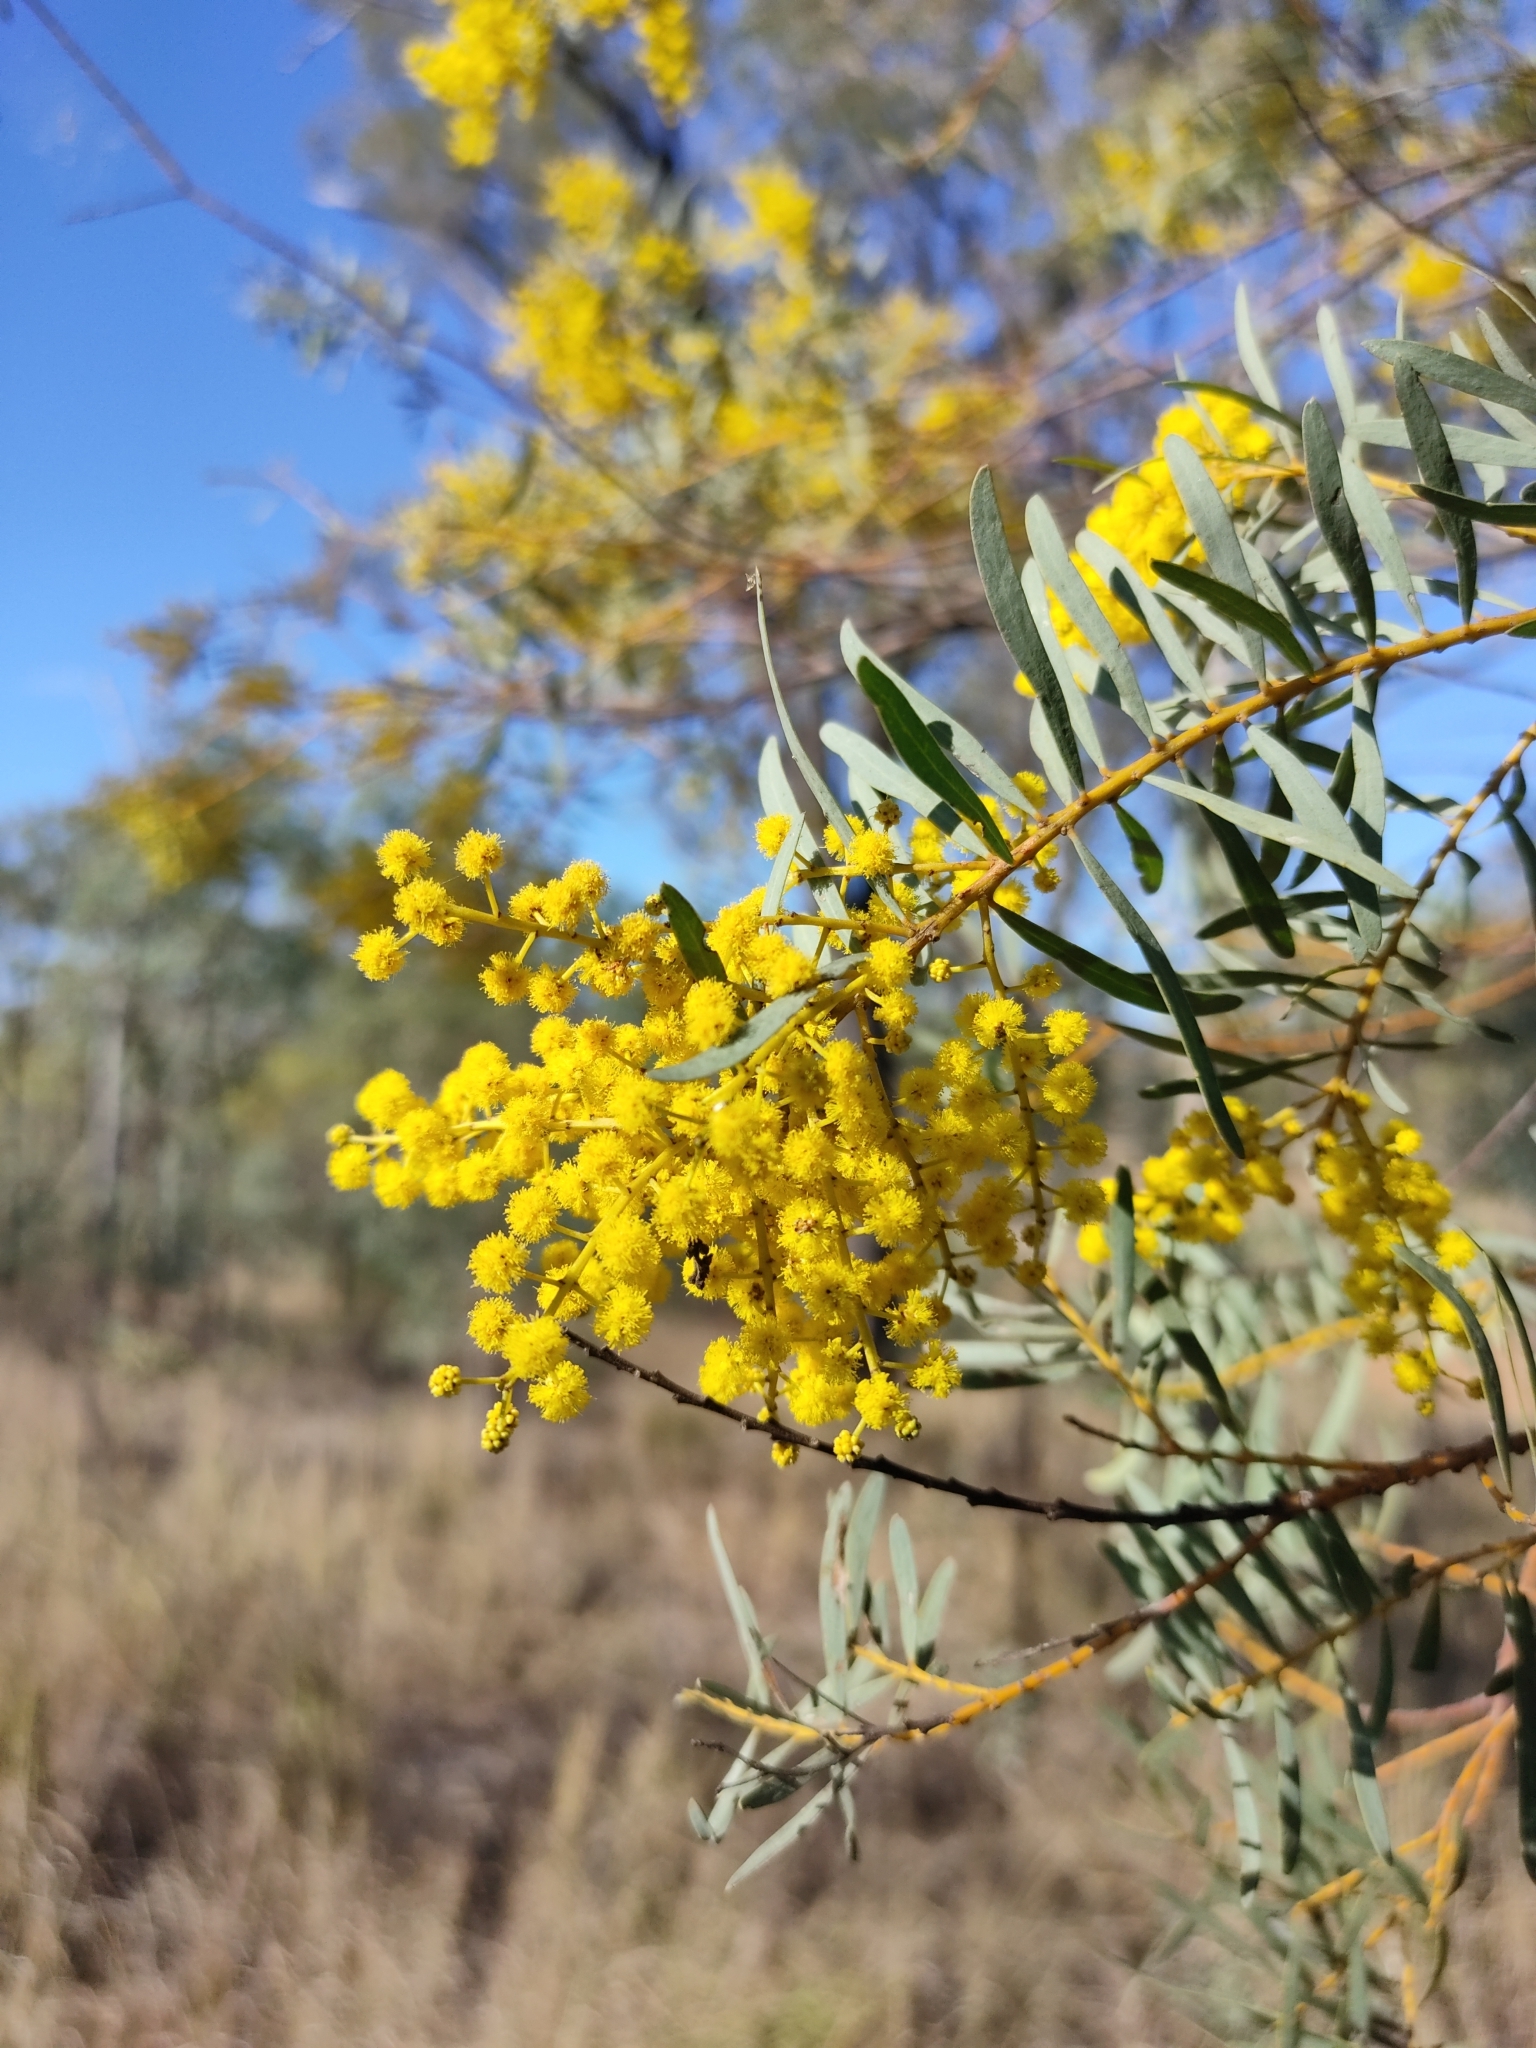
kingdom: Plantae
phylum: Tracheophyta
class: Magnoliopsida
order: Fabales
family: Fabaceae
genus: Acacia
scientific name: Acacia decora
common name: Showy wattle
